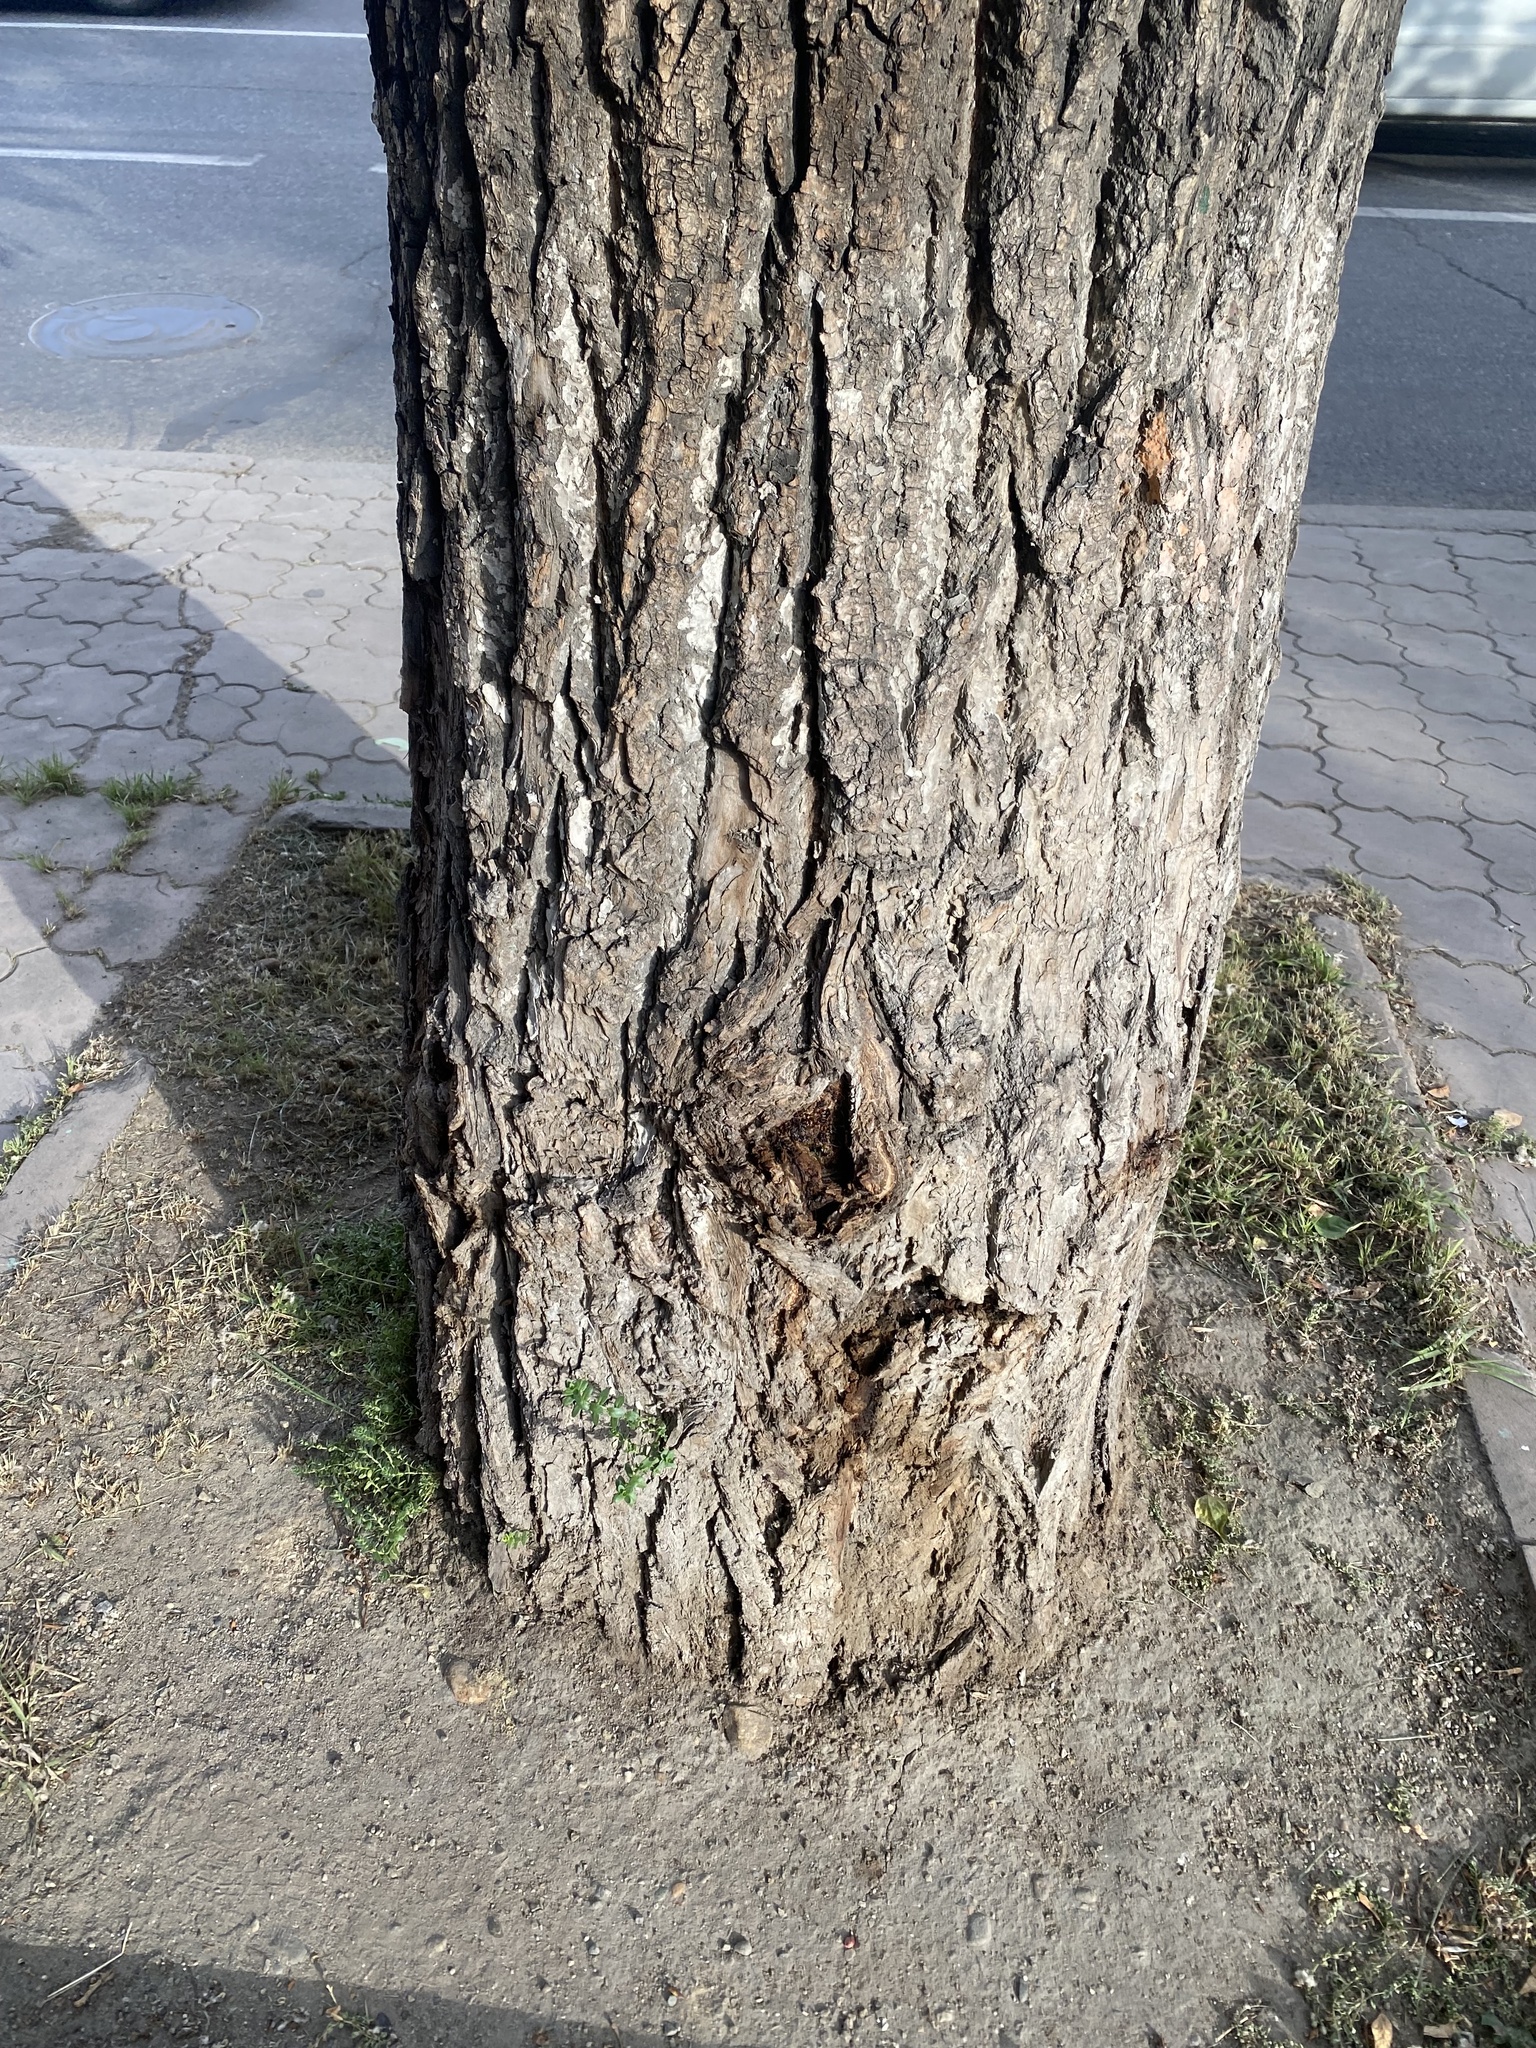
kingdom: Plantae
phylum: Tracheophyta
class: Magnoliopsida
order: Ericales
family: Primulaceae
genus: Lysimachia
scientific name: Lysimachia maritima
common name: Sea milkwort
